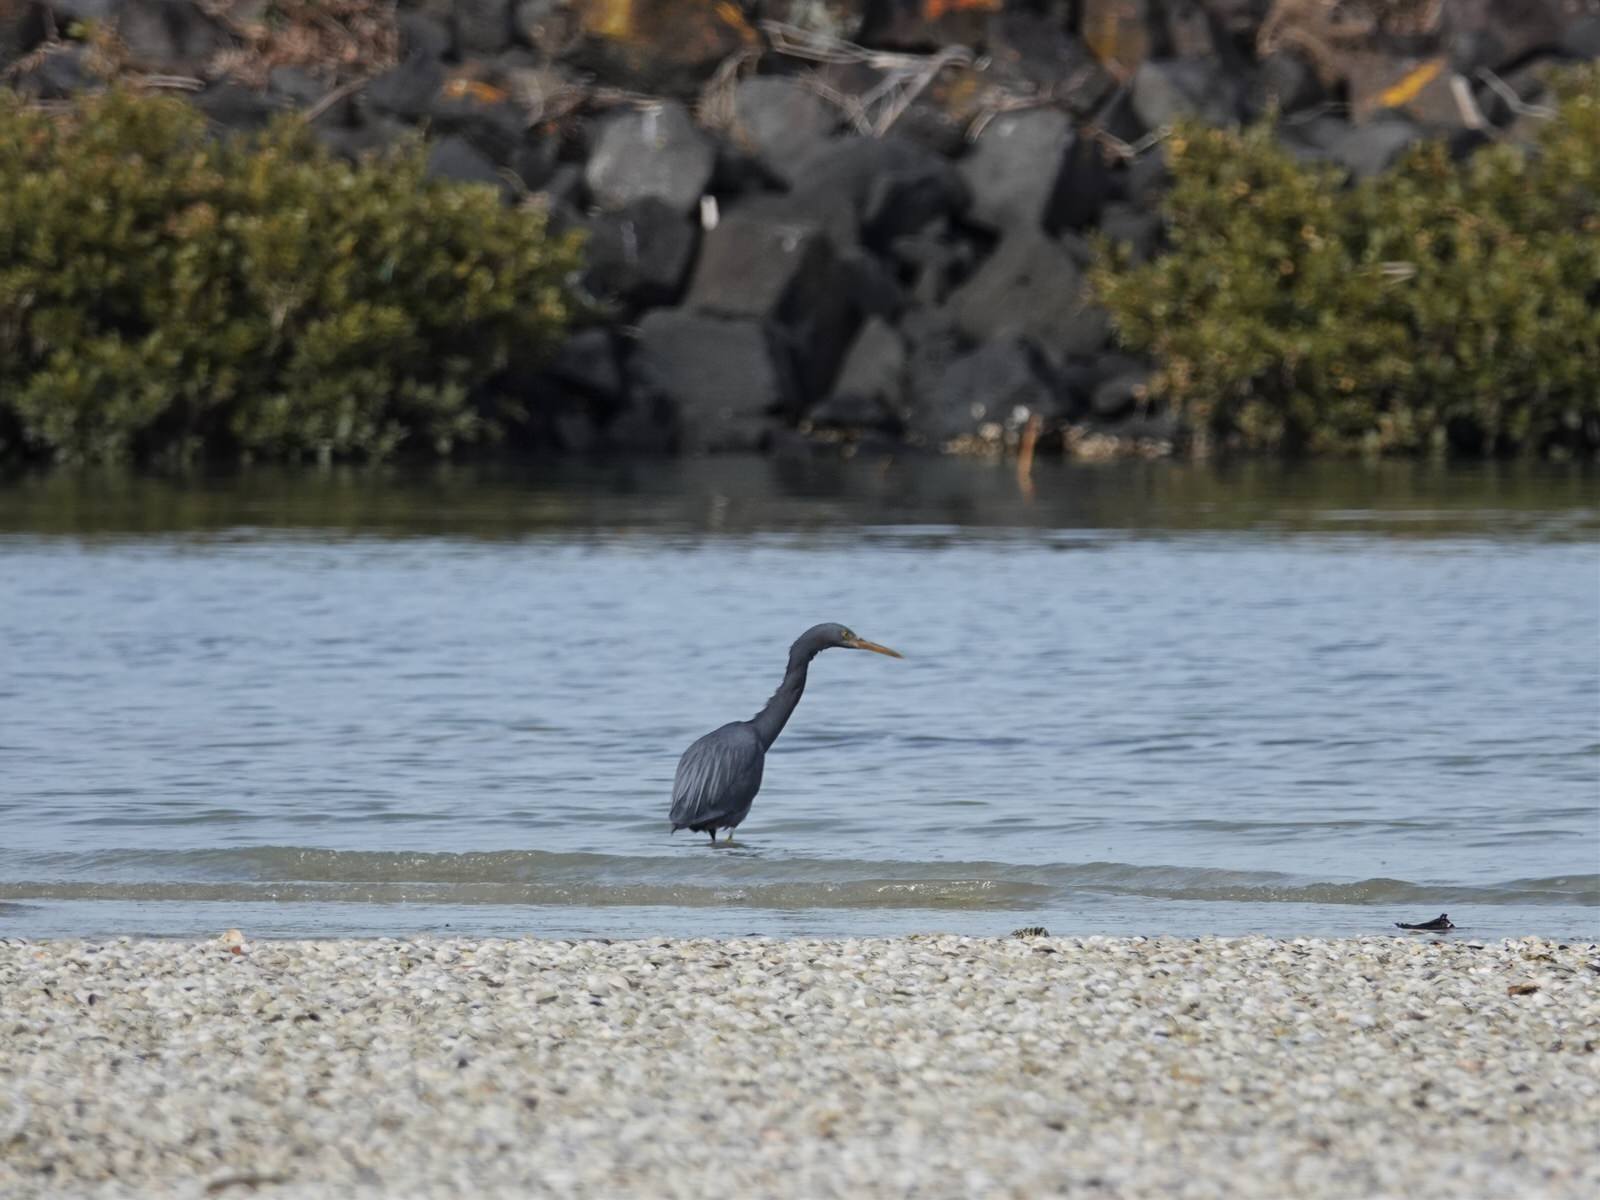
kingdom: Animalia
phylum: Chordata
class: Aves
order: Pelecaniformes
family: Ardeidae
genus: Egretta
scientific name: Egretta sacra
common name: Pacific reef heron
